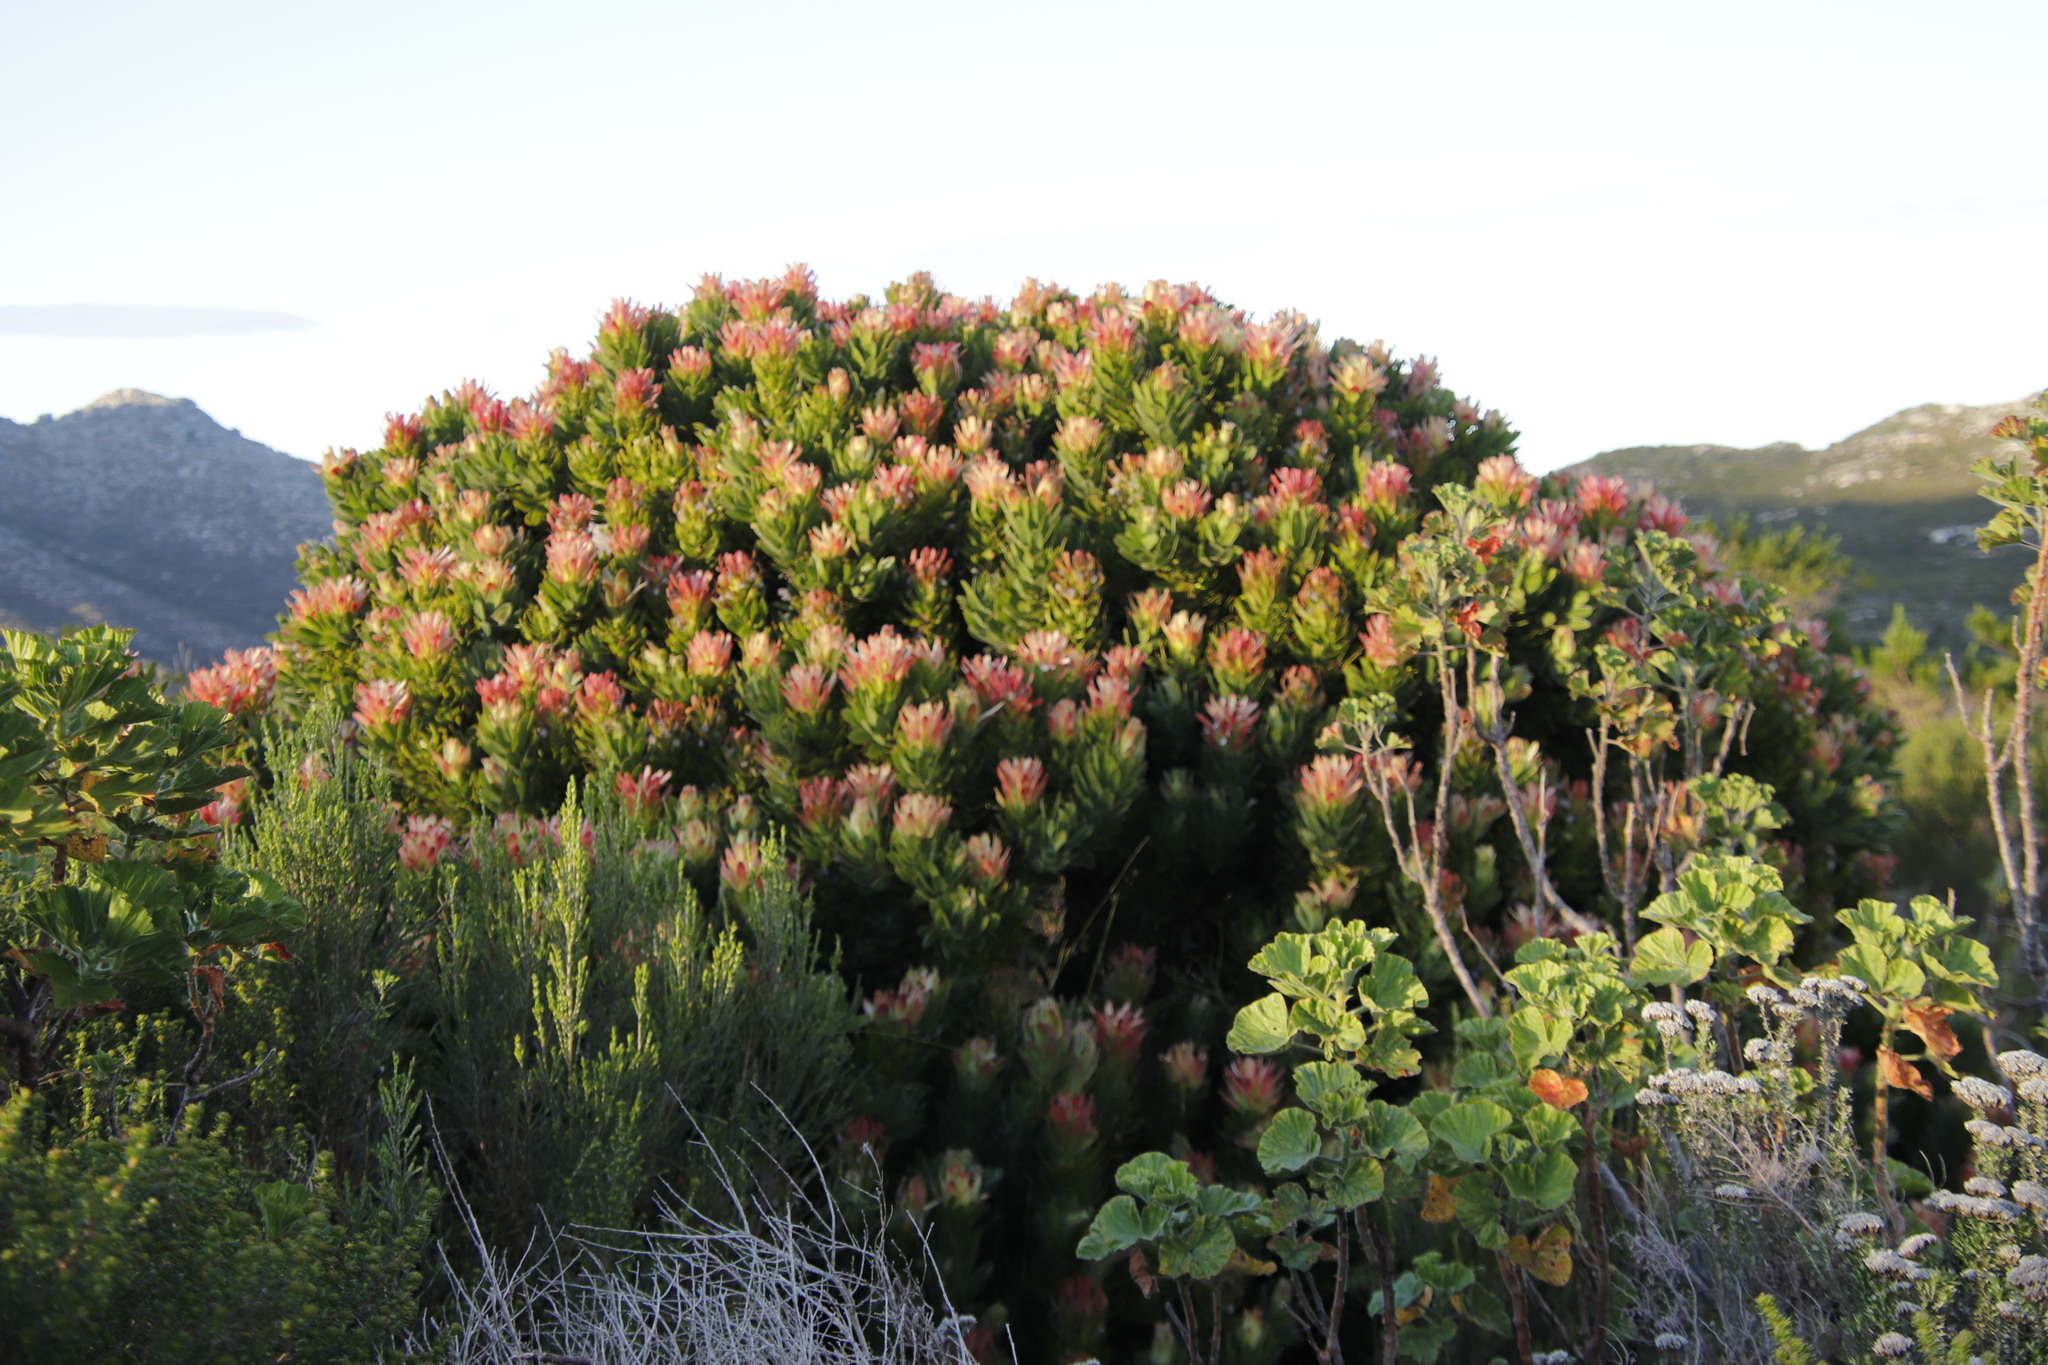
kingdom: Plantae
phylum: Tracheophyta
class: Magnoliopsida
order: Proteales
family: Proteaceae
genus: Mimetes
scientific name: Mimetes fimbriifolius
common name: Fringed bottlebrush
